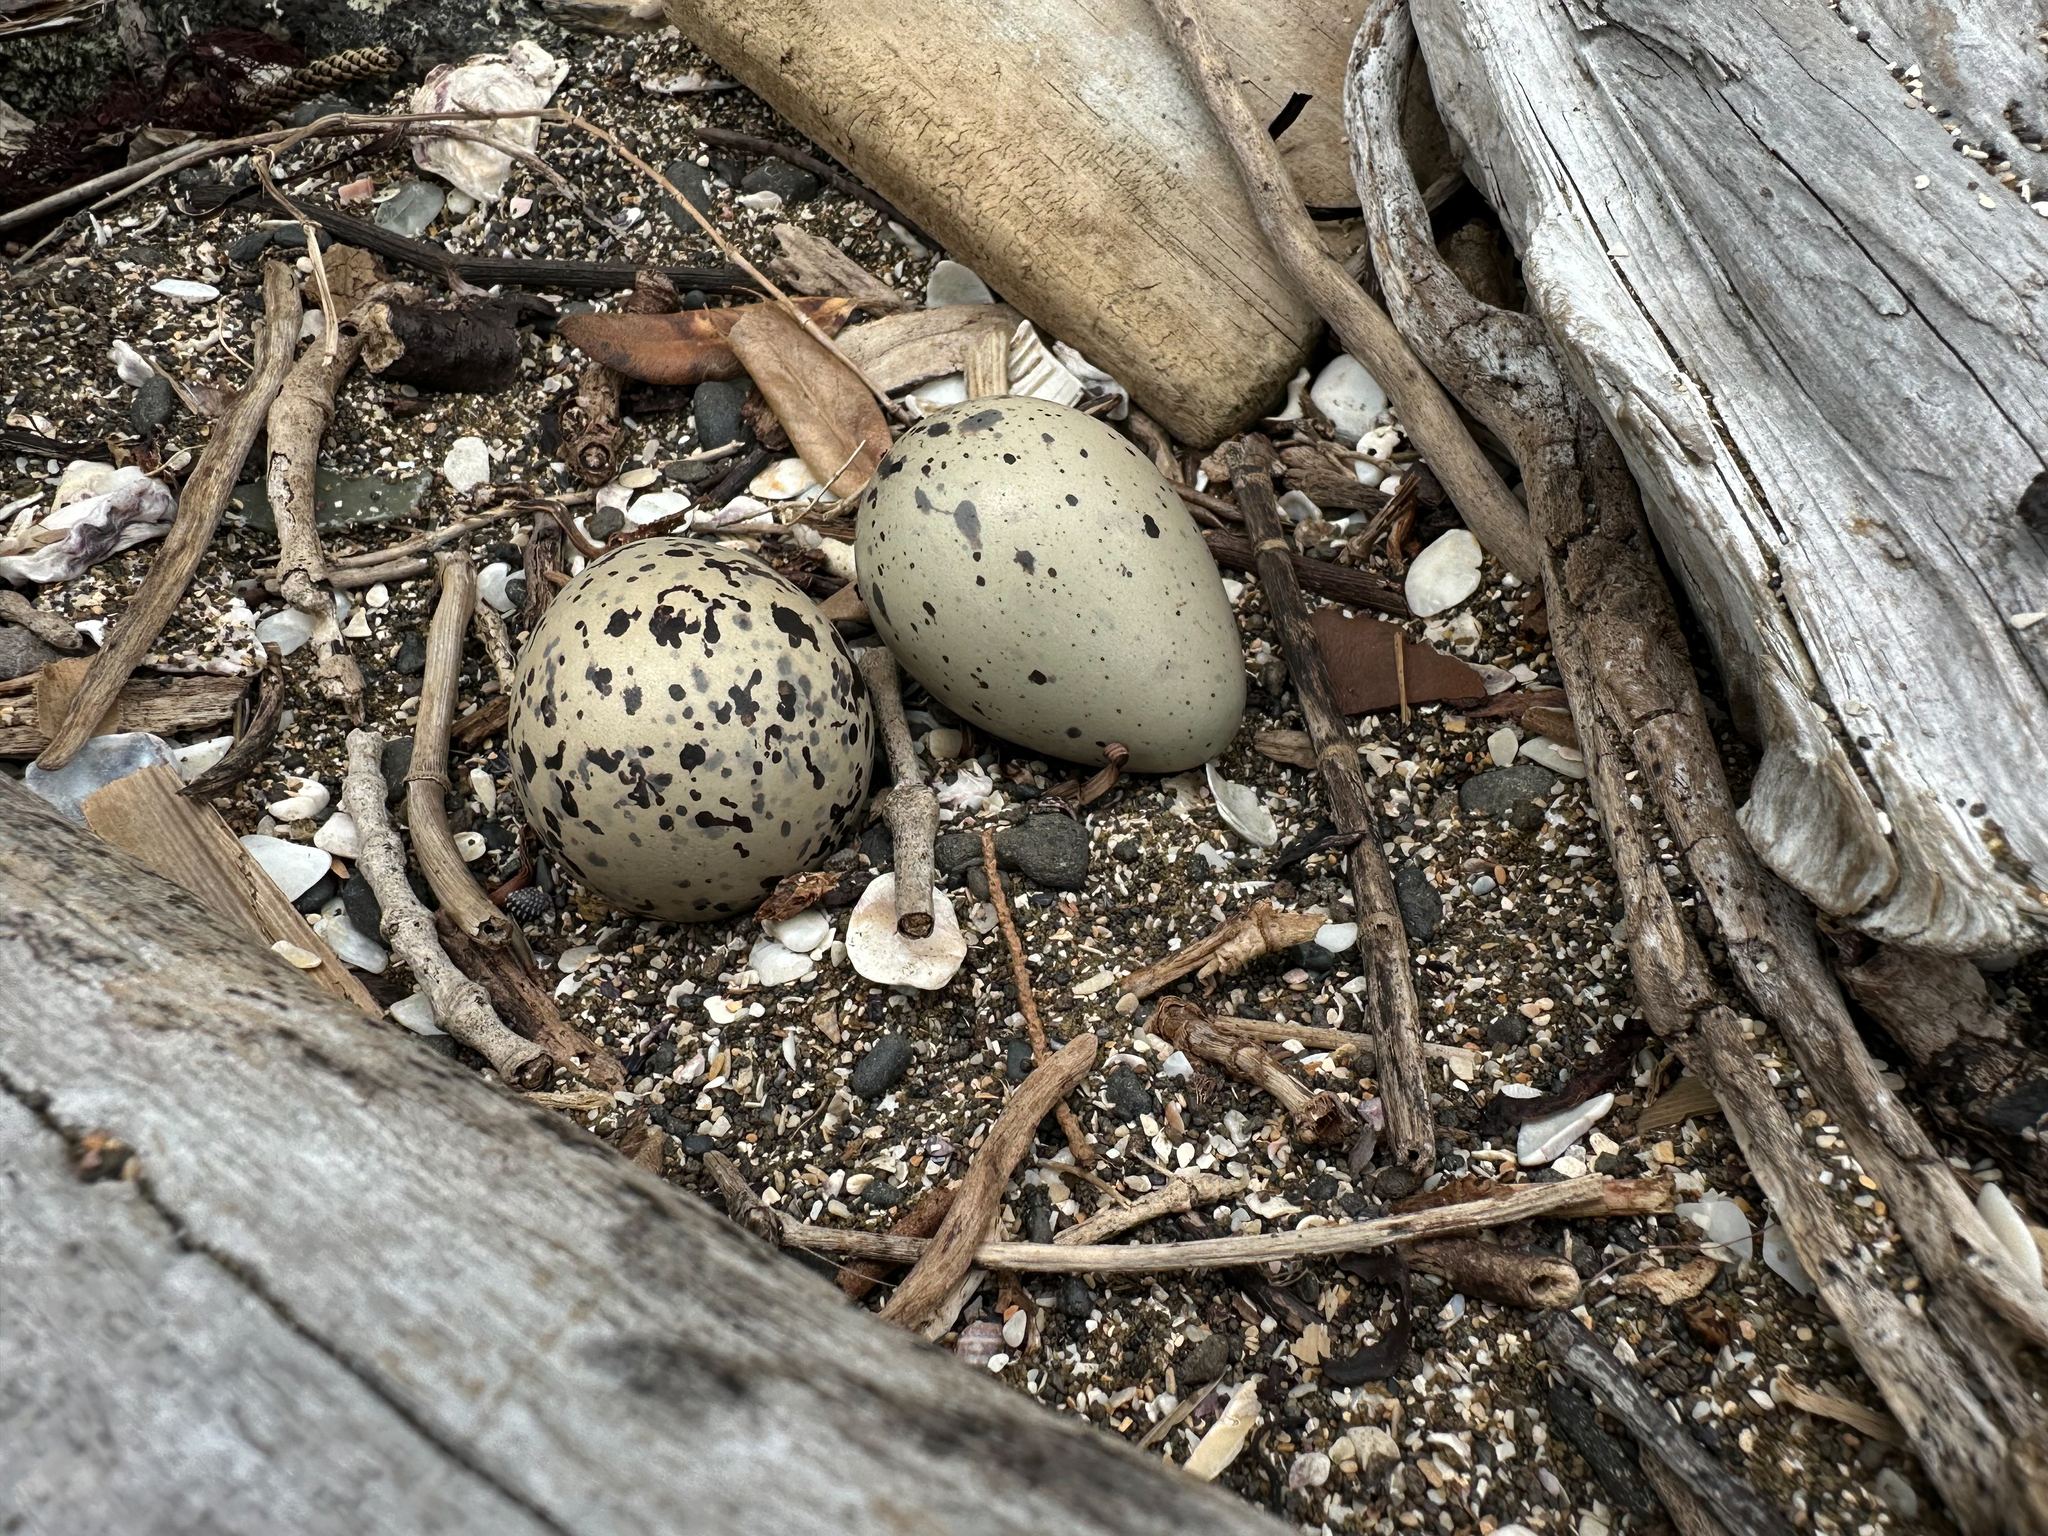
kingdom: Animalia
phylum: Chordata
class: Aves
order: Charadriiformes
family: Haematopodidae
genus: Haematopus
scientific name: Haematopus unicolor
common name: Variable oystercatcher
